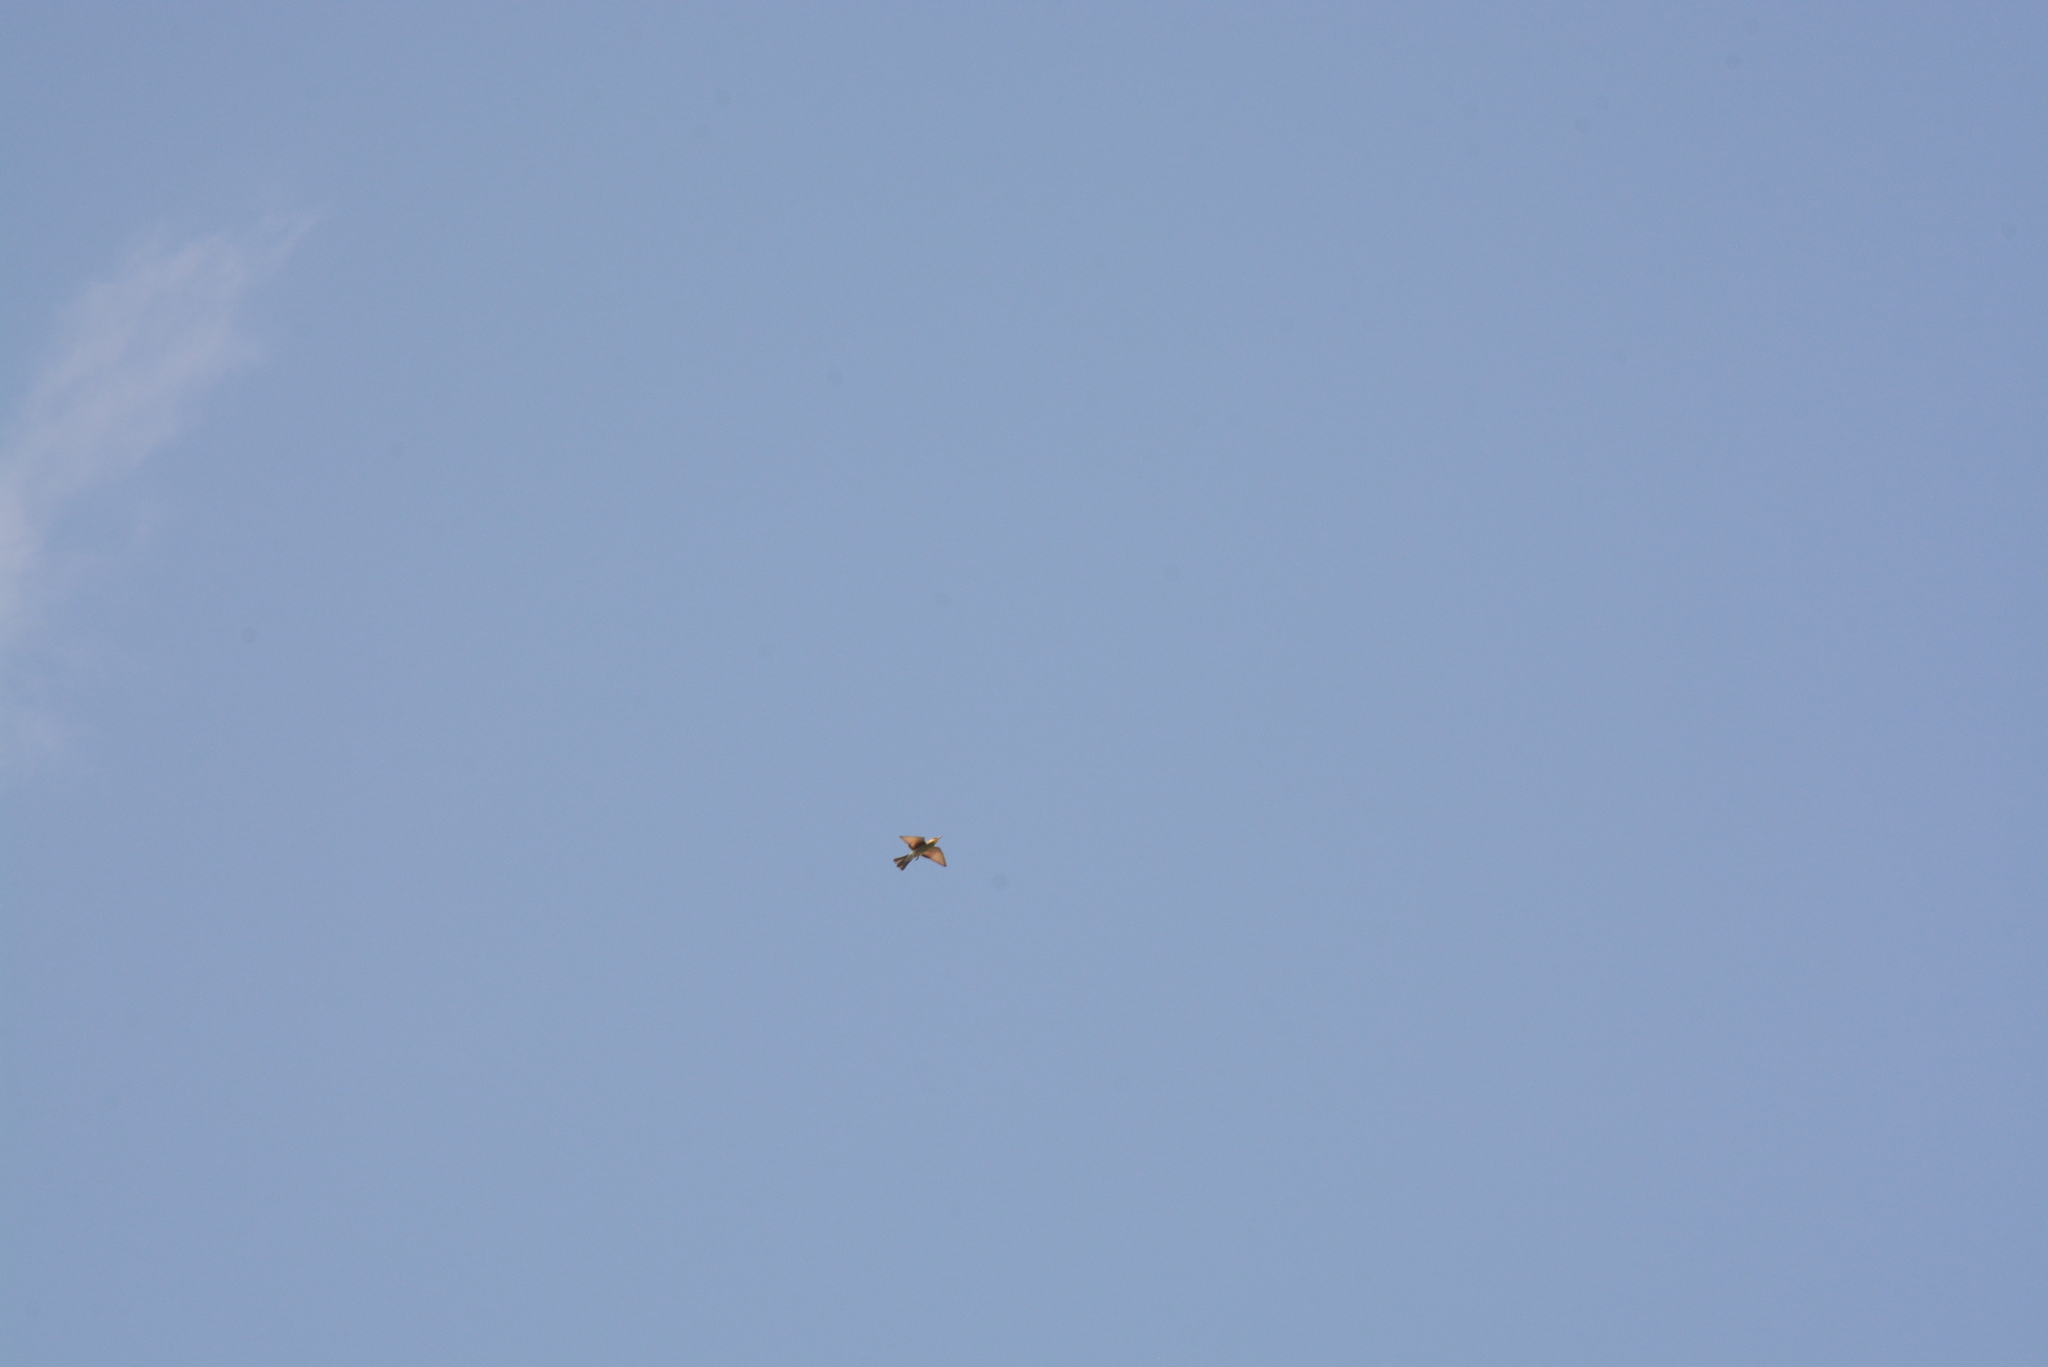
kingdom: Animalia
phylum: Chordata
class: Aves
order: Coraciiformes
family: Meropidae
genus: Merops
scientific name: Merops apiaster
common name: European bee-eater
